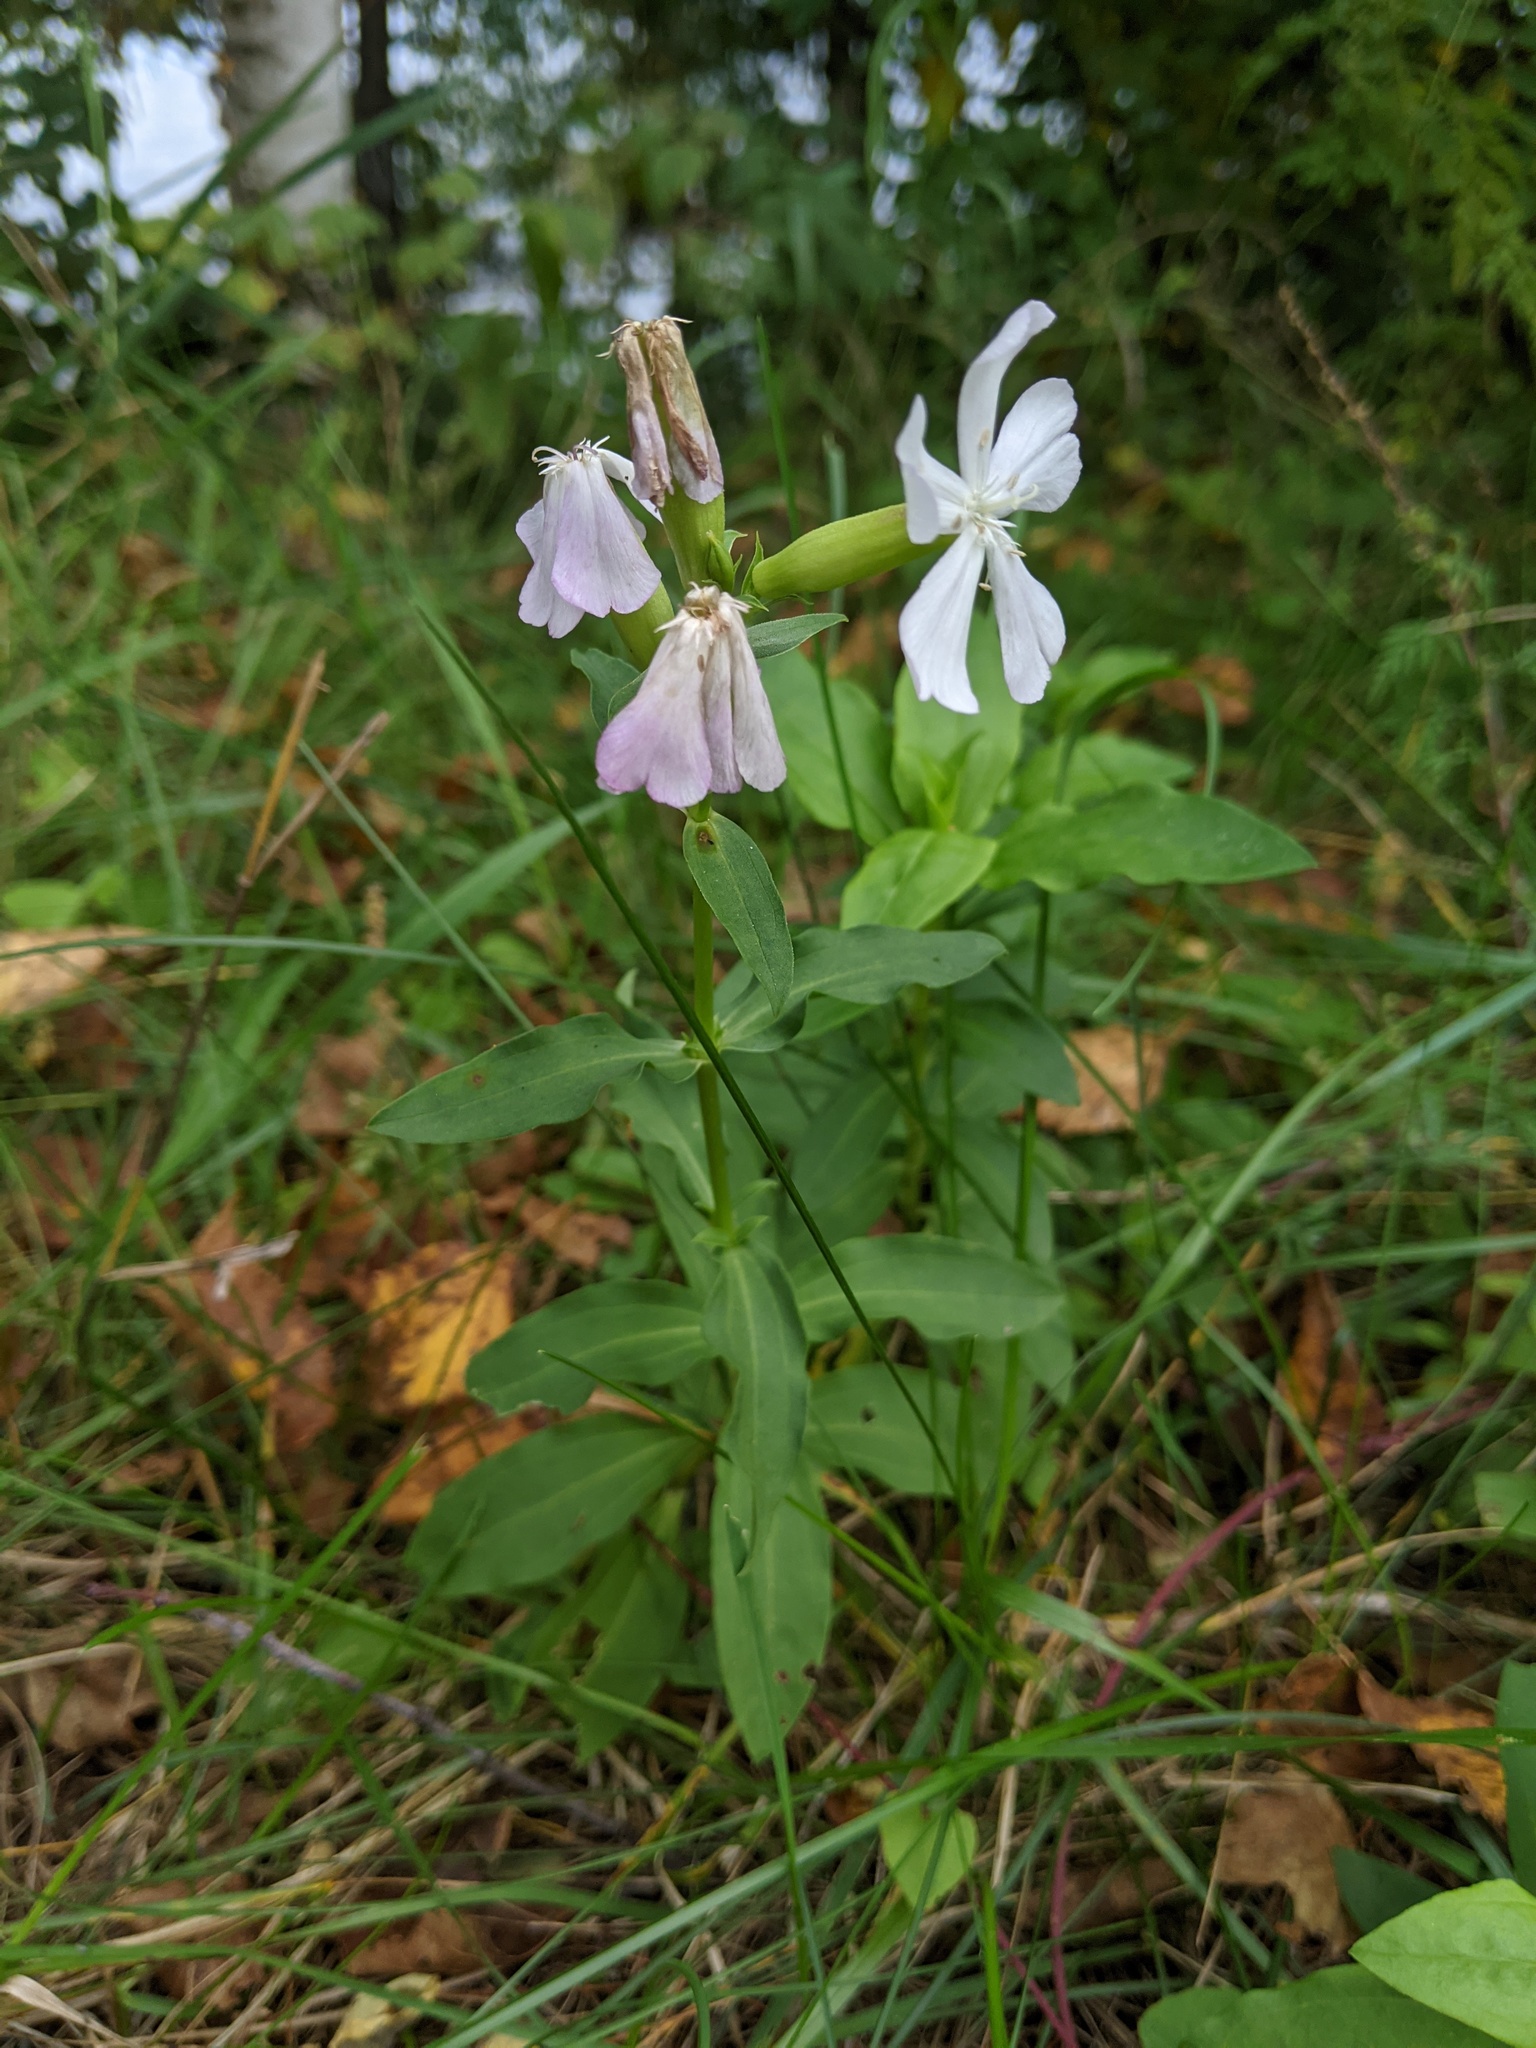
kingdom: Plantae
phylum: Tracheophyta
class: Magnoliopsida
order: Caryophyllales
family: Caryophyllaceae
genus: Saponaria
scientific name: Saponaria officinalis
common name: Soapwort
